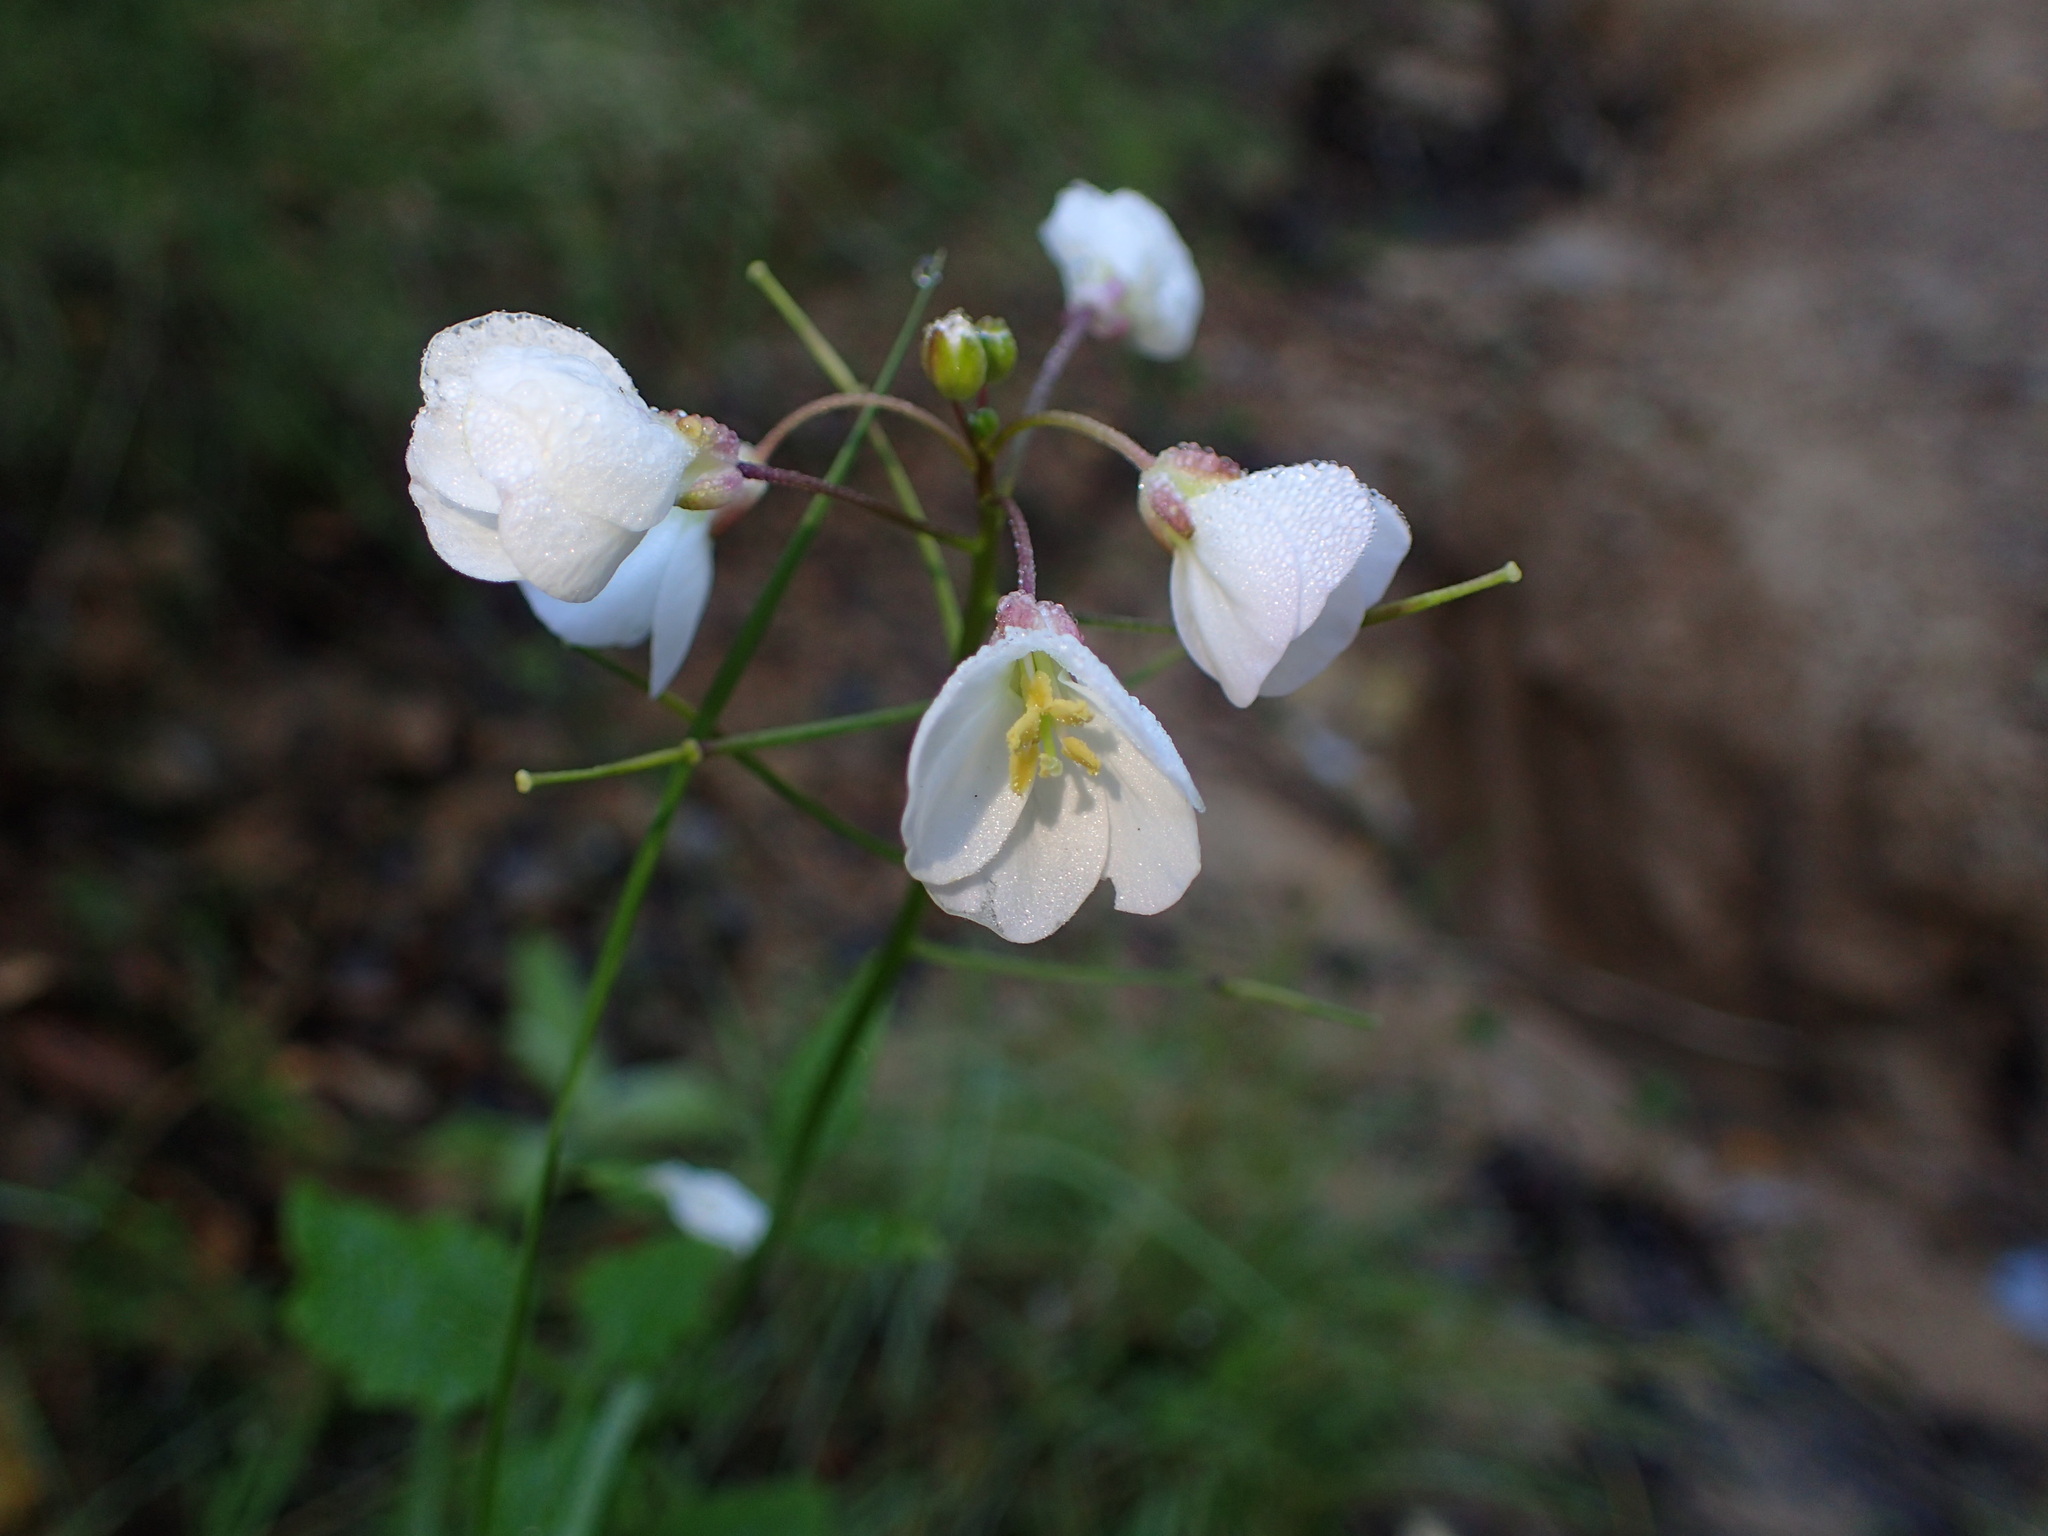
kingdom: Plantae
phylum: Tracheophyta
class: Magnoliopsida
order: Brassicales
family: Brassicaceae
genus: Cardamine
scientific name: Cardamine californica
